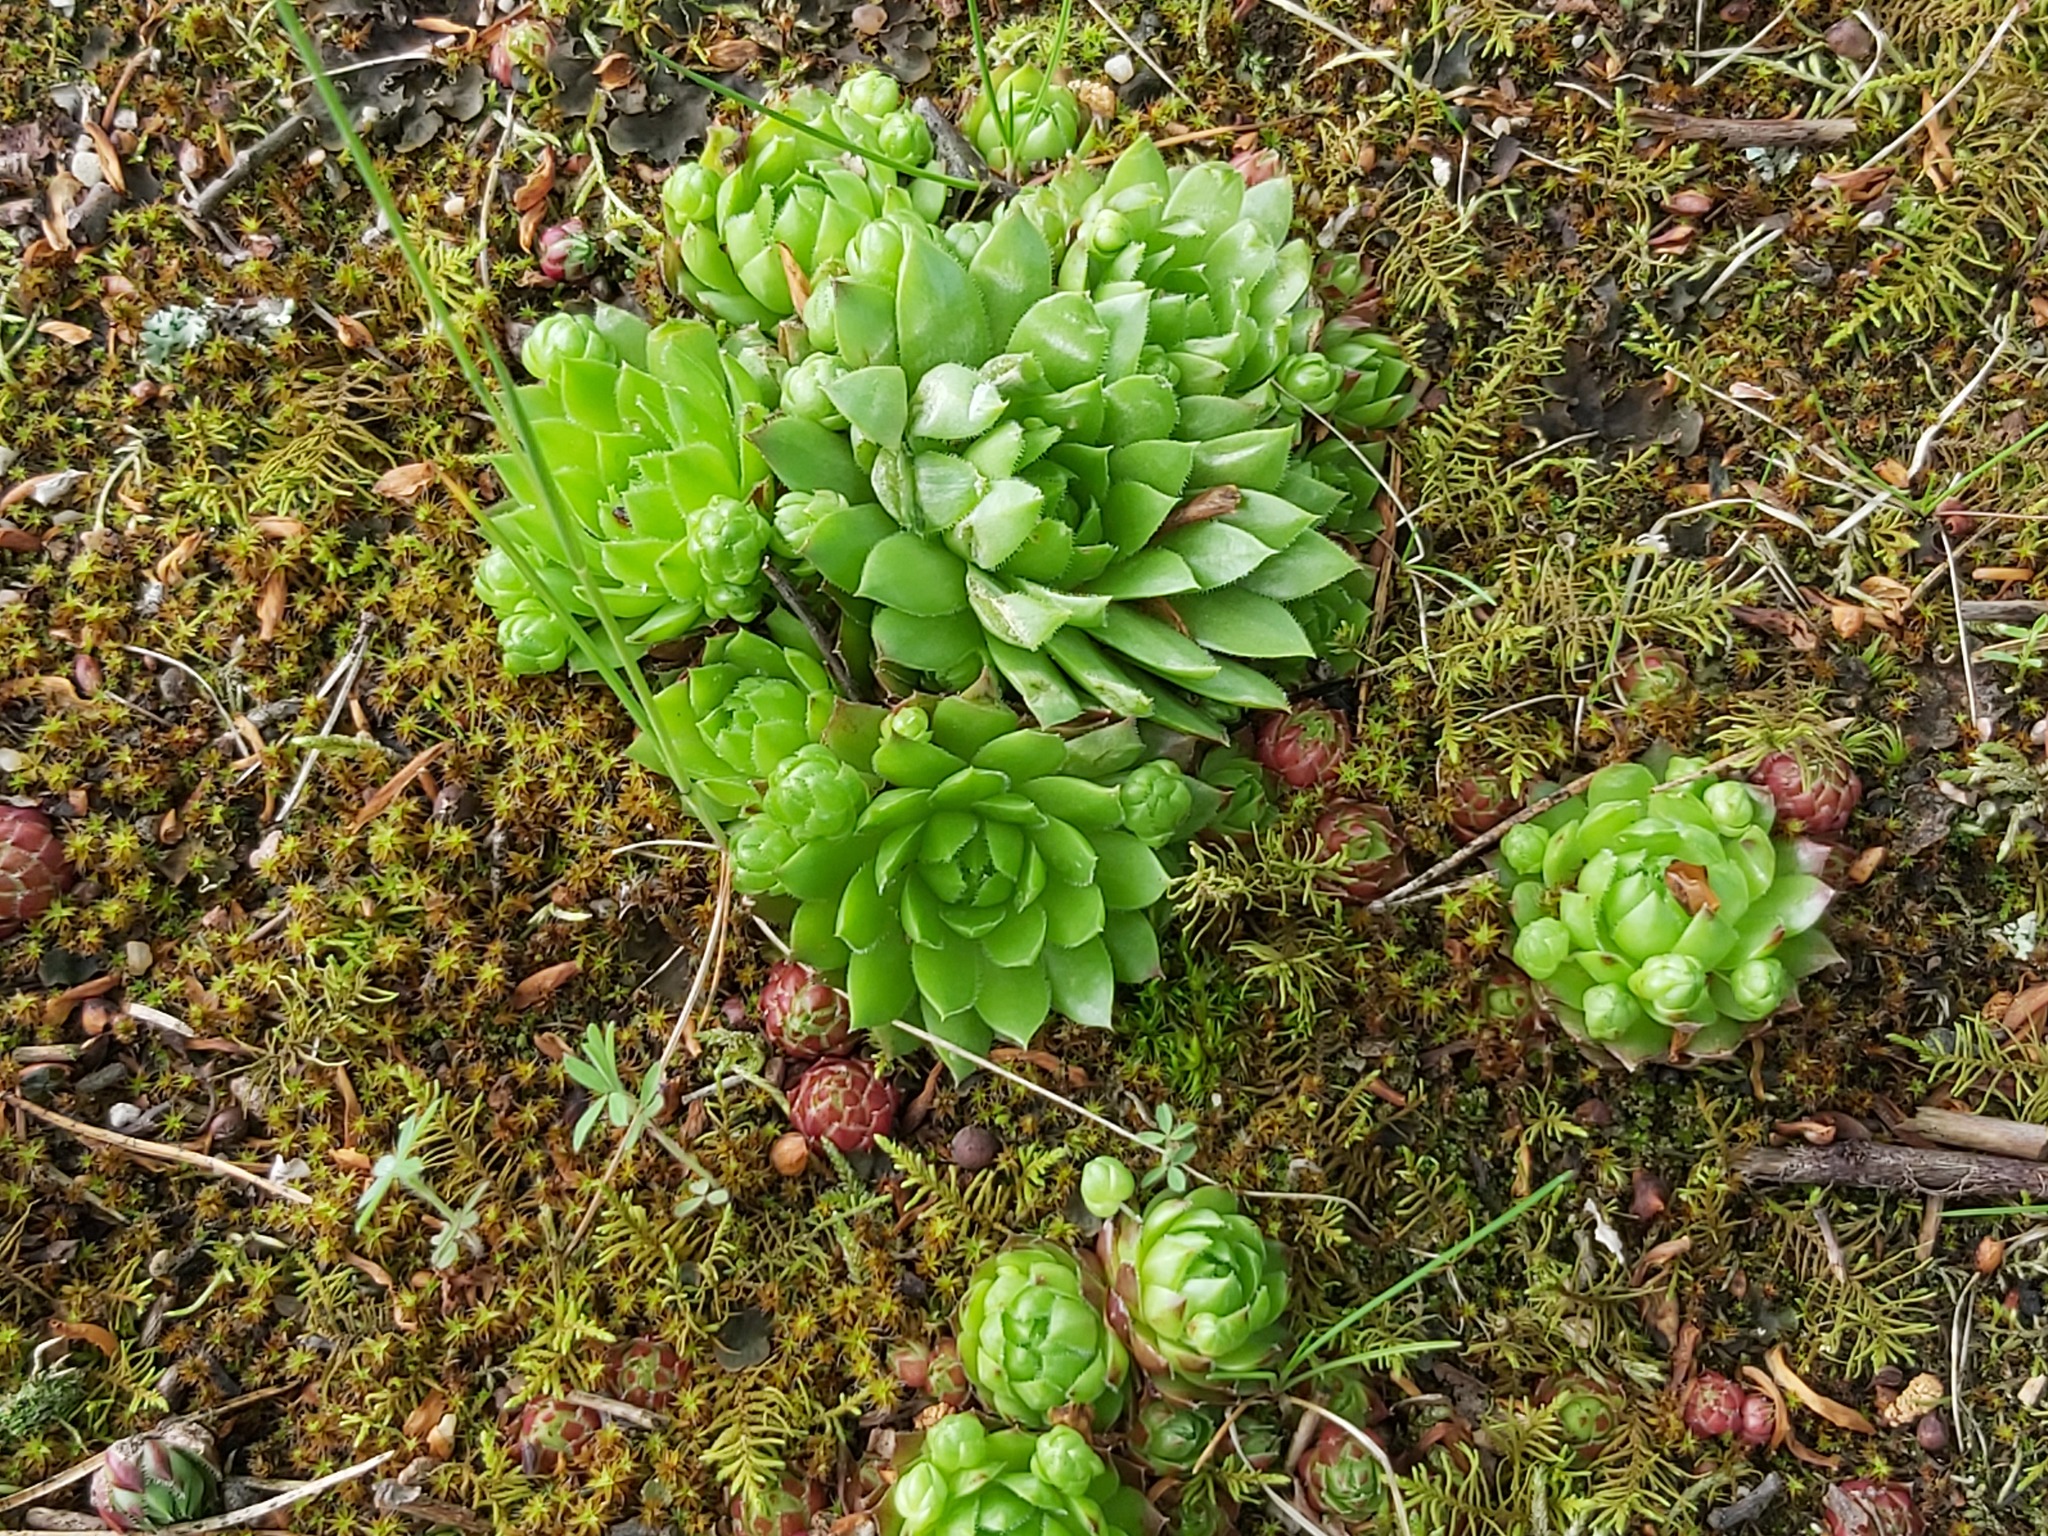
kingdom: Plantae
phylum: Tracheophyta
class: Magnoliopsida
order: Saxifragales
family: Crassulaceae
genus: Sempervivum
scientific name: Sempervivum globiferum
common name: Rolling hen-and-chicks
